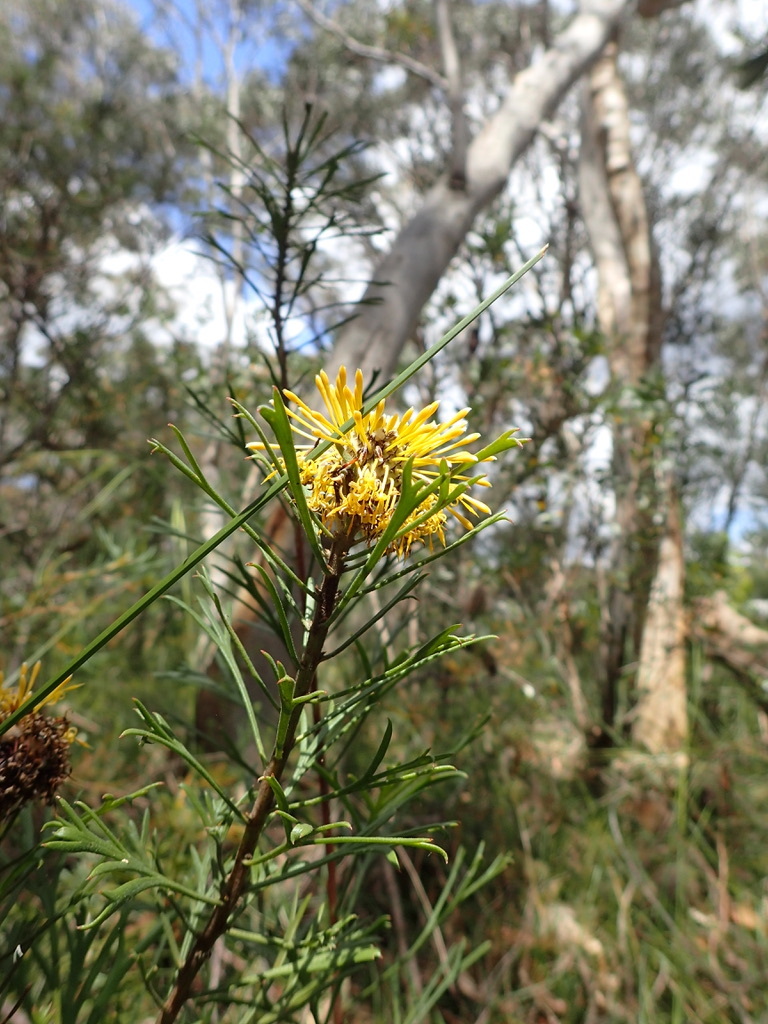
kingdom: Plantae
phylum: Tracheophyta
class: Magnoliopsida
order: Proteales
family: Proteaceae
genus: Isopogon
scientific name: Isopogon anemonifolius
